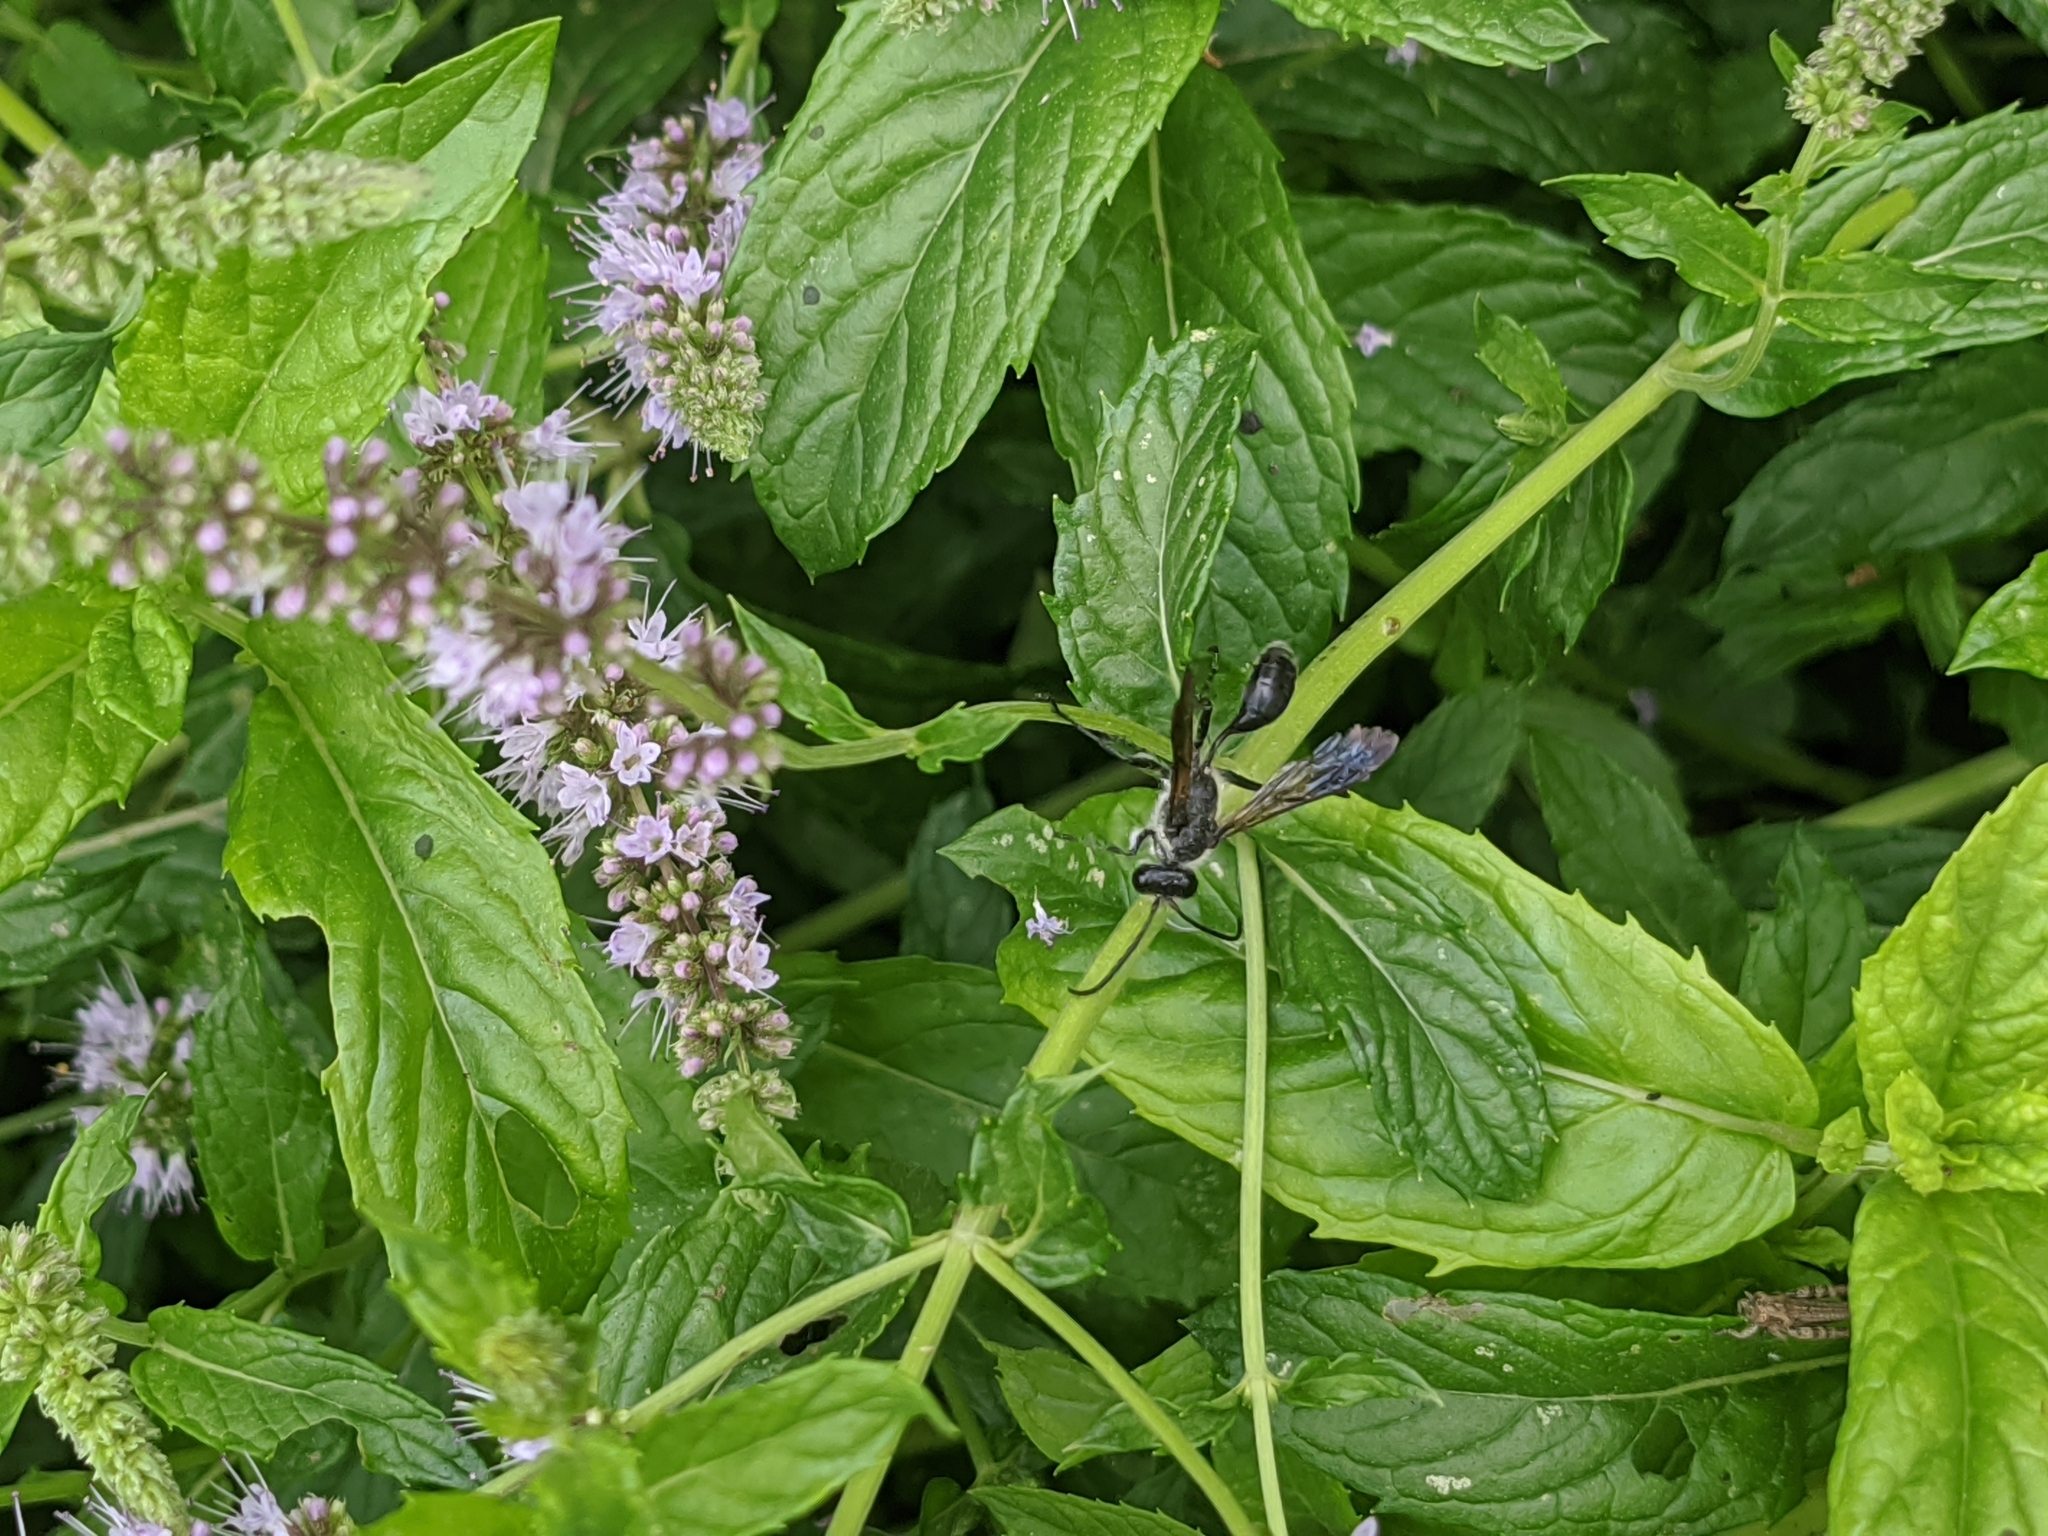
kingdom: Animalia
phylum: Arthropoda
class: Insecta
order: Hymenoptera
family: Sphecidae
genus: Isodontia
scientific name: Isodontia mexicana
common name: Mud dauber
